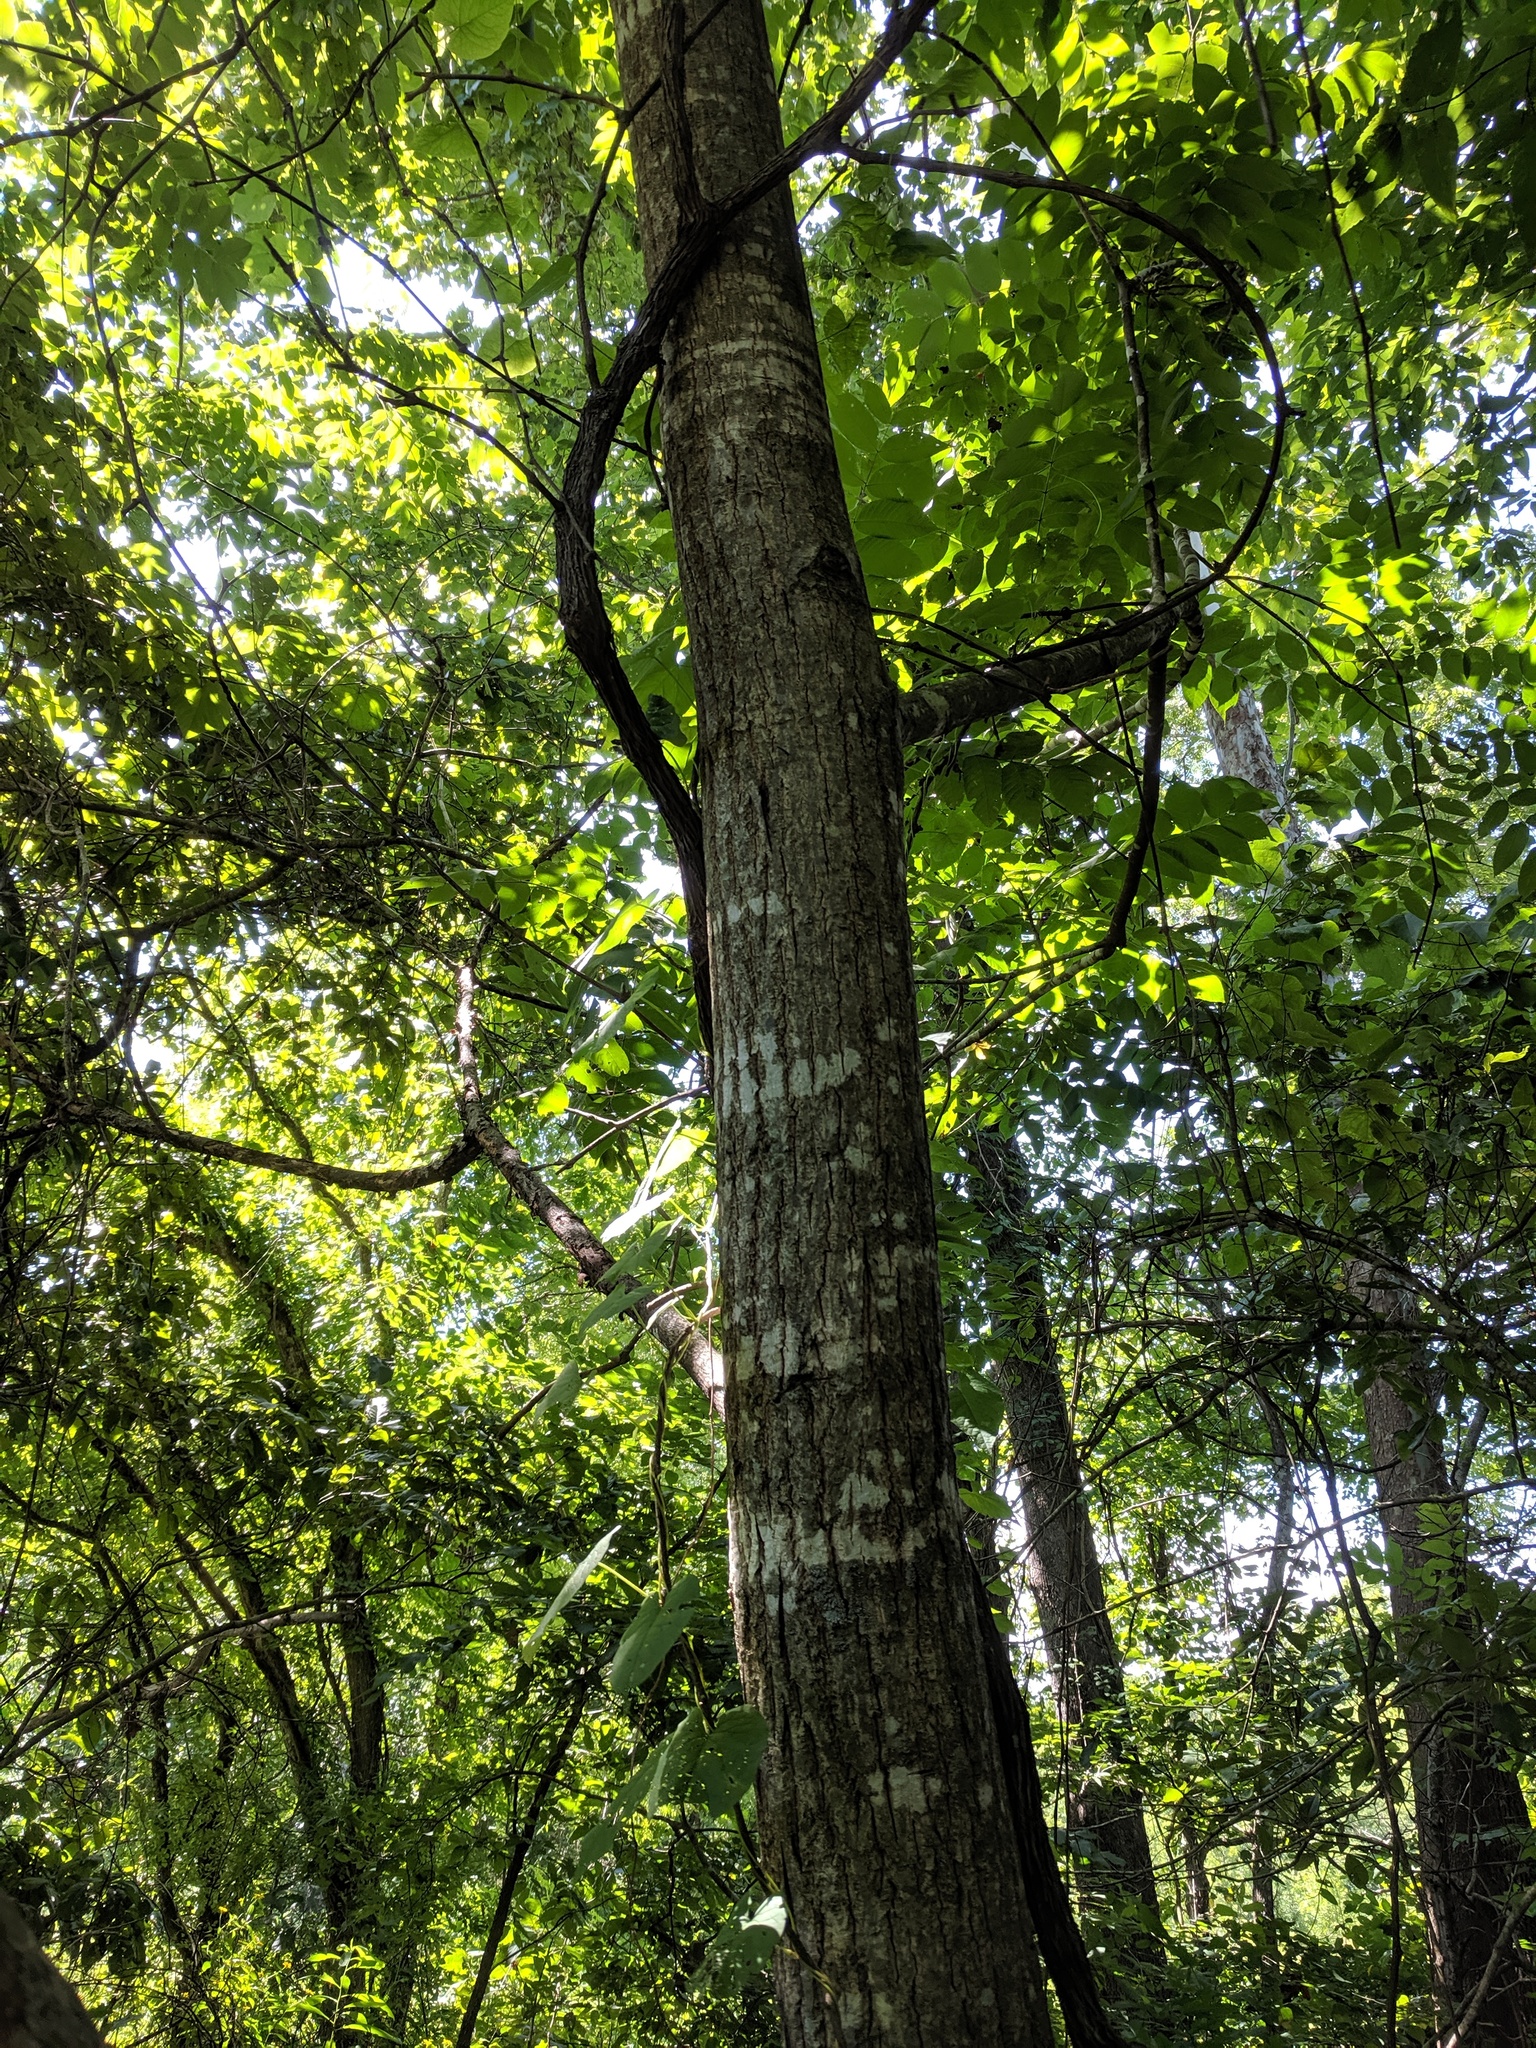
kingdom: Plantae
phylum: Tracheophyta
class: Magnoliopsida
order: Fagales
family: Juglandaceae
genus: Juglans
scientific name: Juglans cinerea
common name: Butternut
